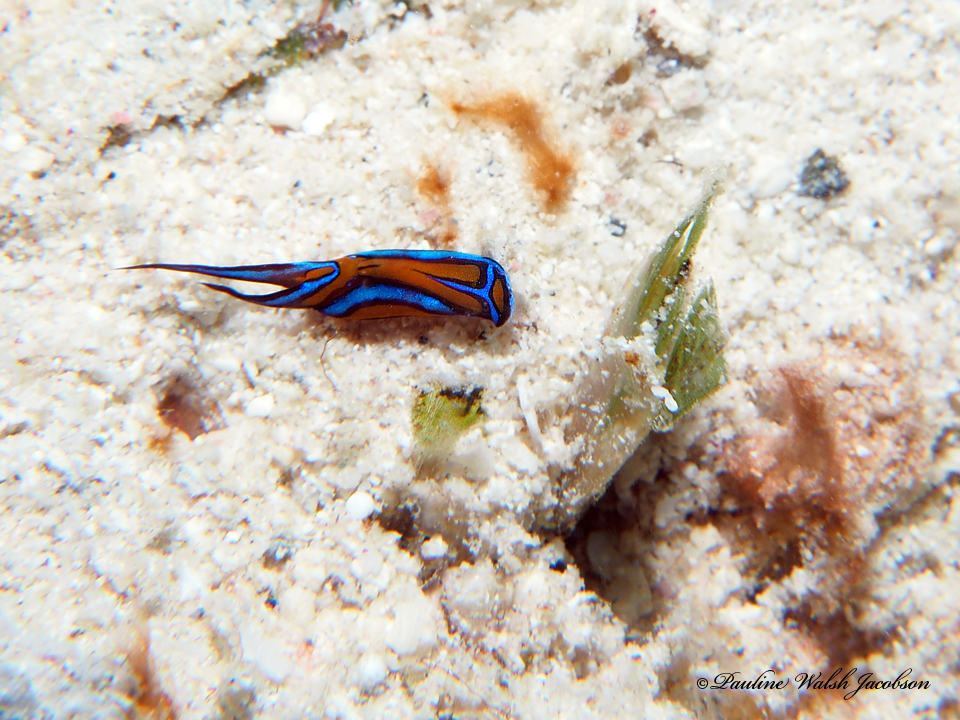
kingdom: Animalia
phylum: Mollusca
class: Gastropoda
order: Cephalaspidea
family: Aglajidae
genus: Chelidonura
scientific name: Chelidonura hirundinina
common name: Leech headshield slug
